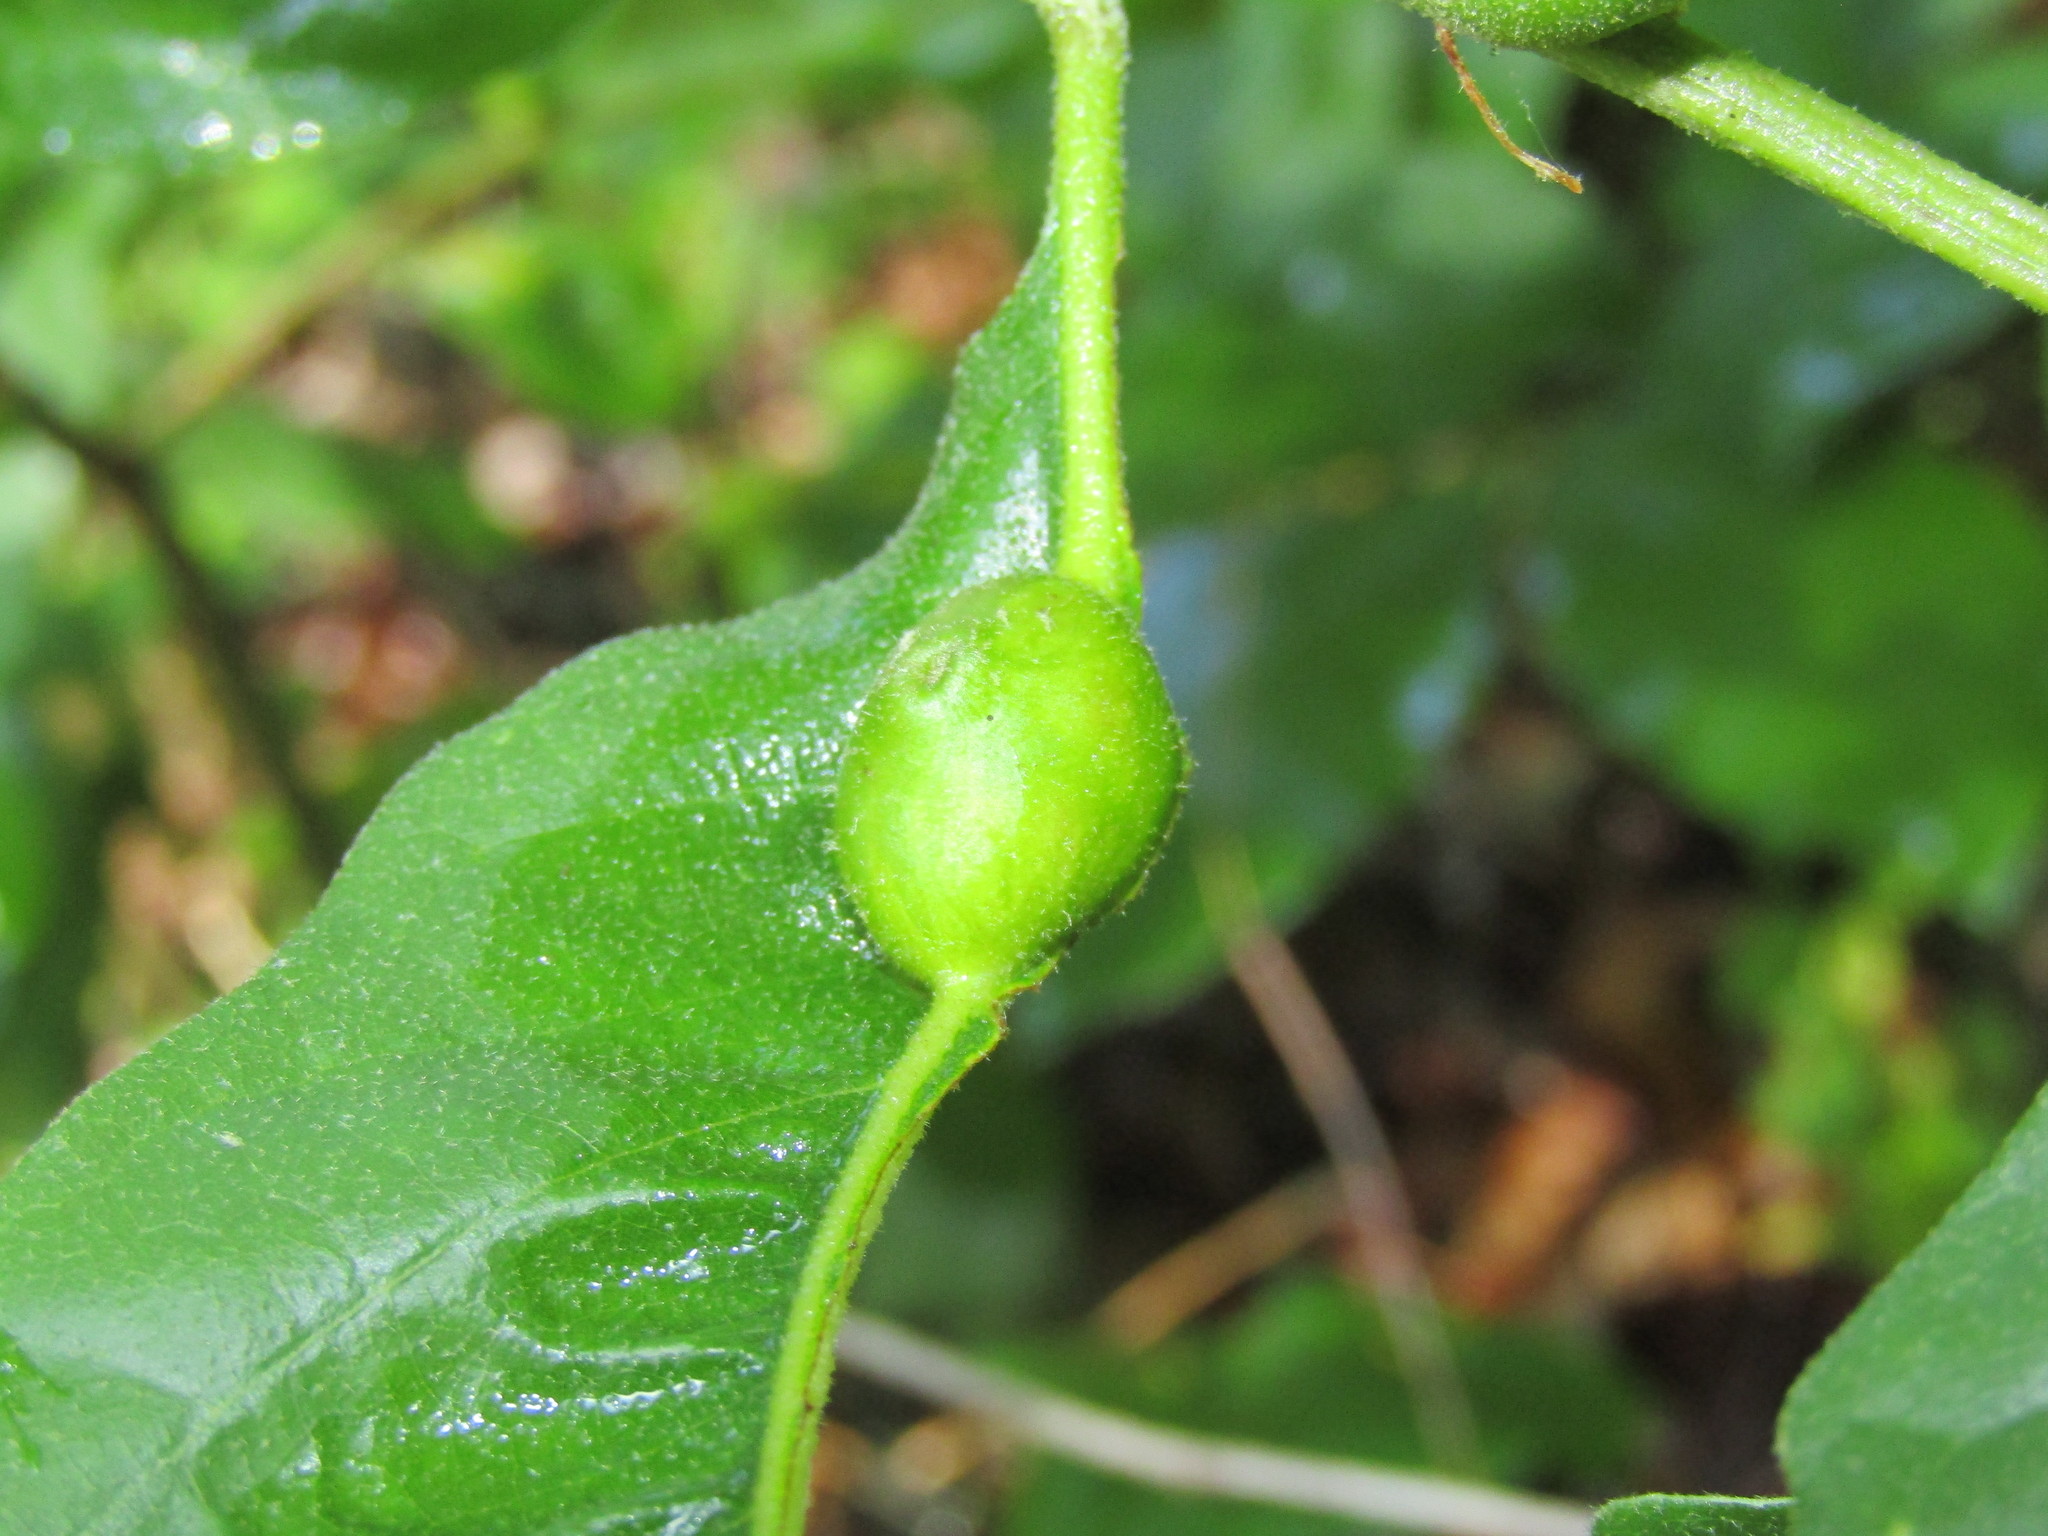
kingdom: Animalia
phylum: Arthropoda
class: Insecta
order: Hymenoptera
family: Cynipidae
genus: Andricus
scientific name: Andricus
